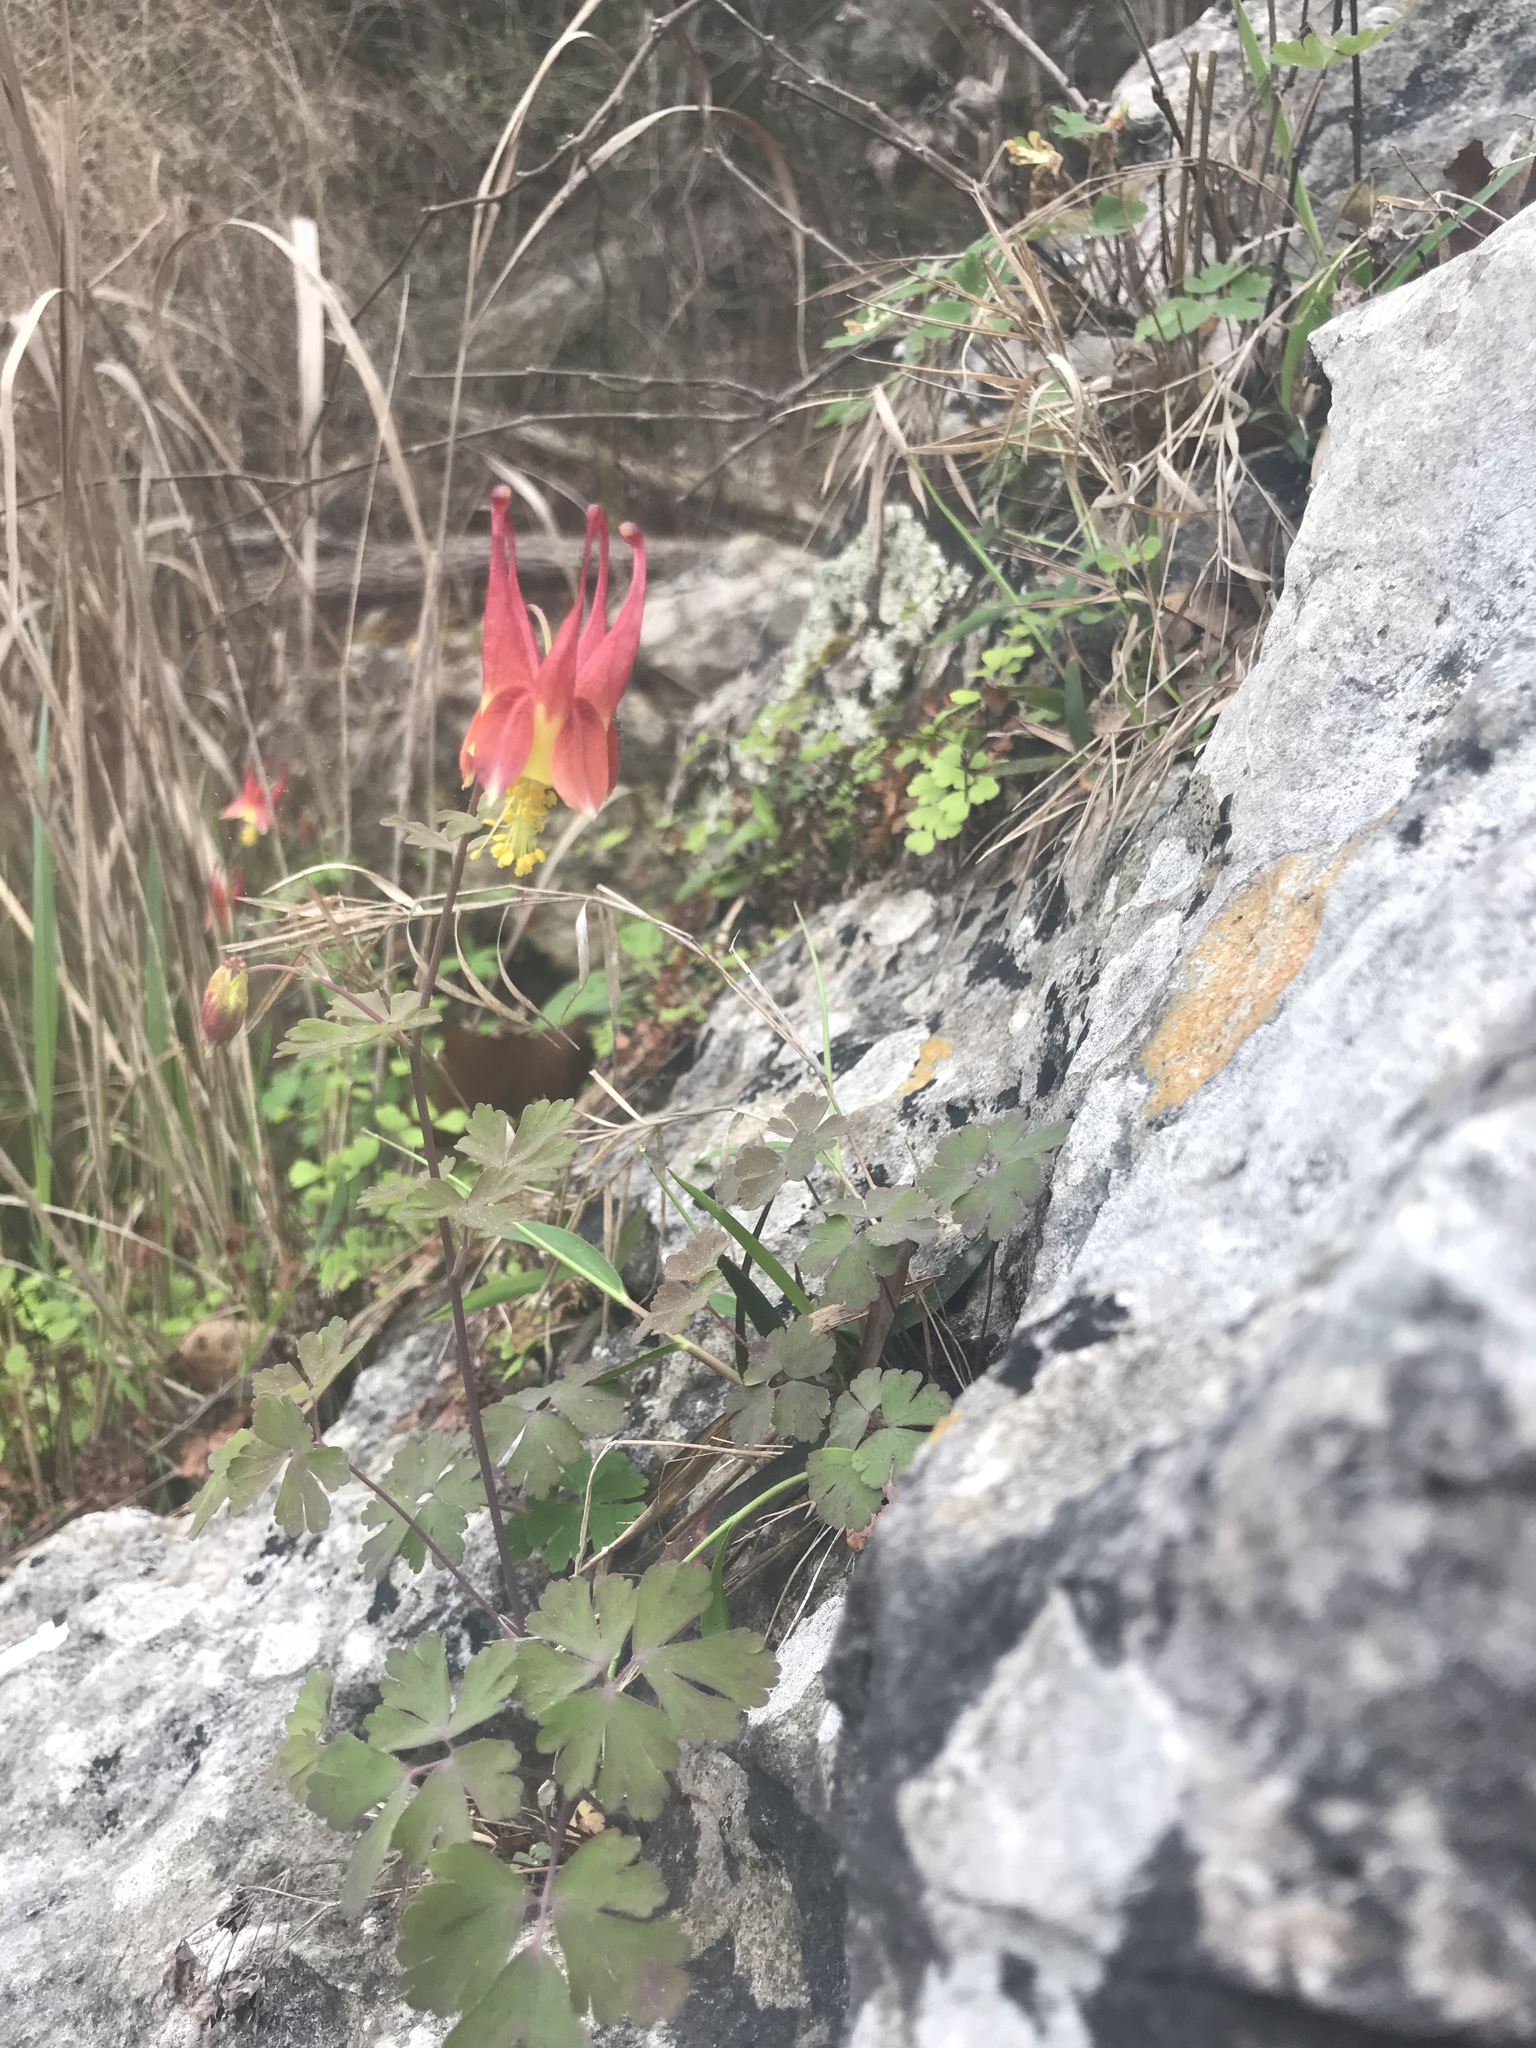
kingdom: Plantae
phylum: Tracheophyta
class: Magnoliopsida
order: Ranunculales
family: Ranunculaceae
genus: Aquilegia
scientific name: Aquilegia canadensis
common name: American columbine
